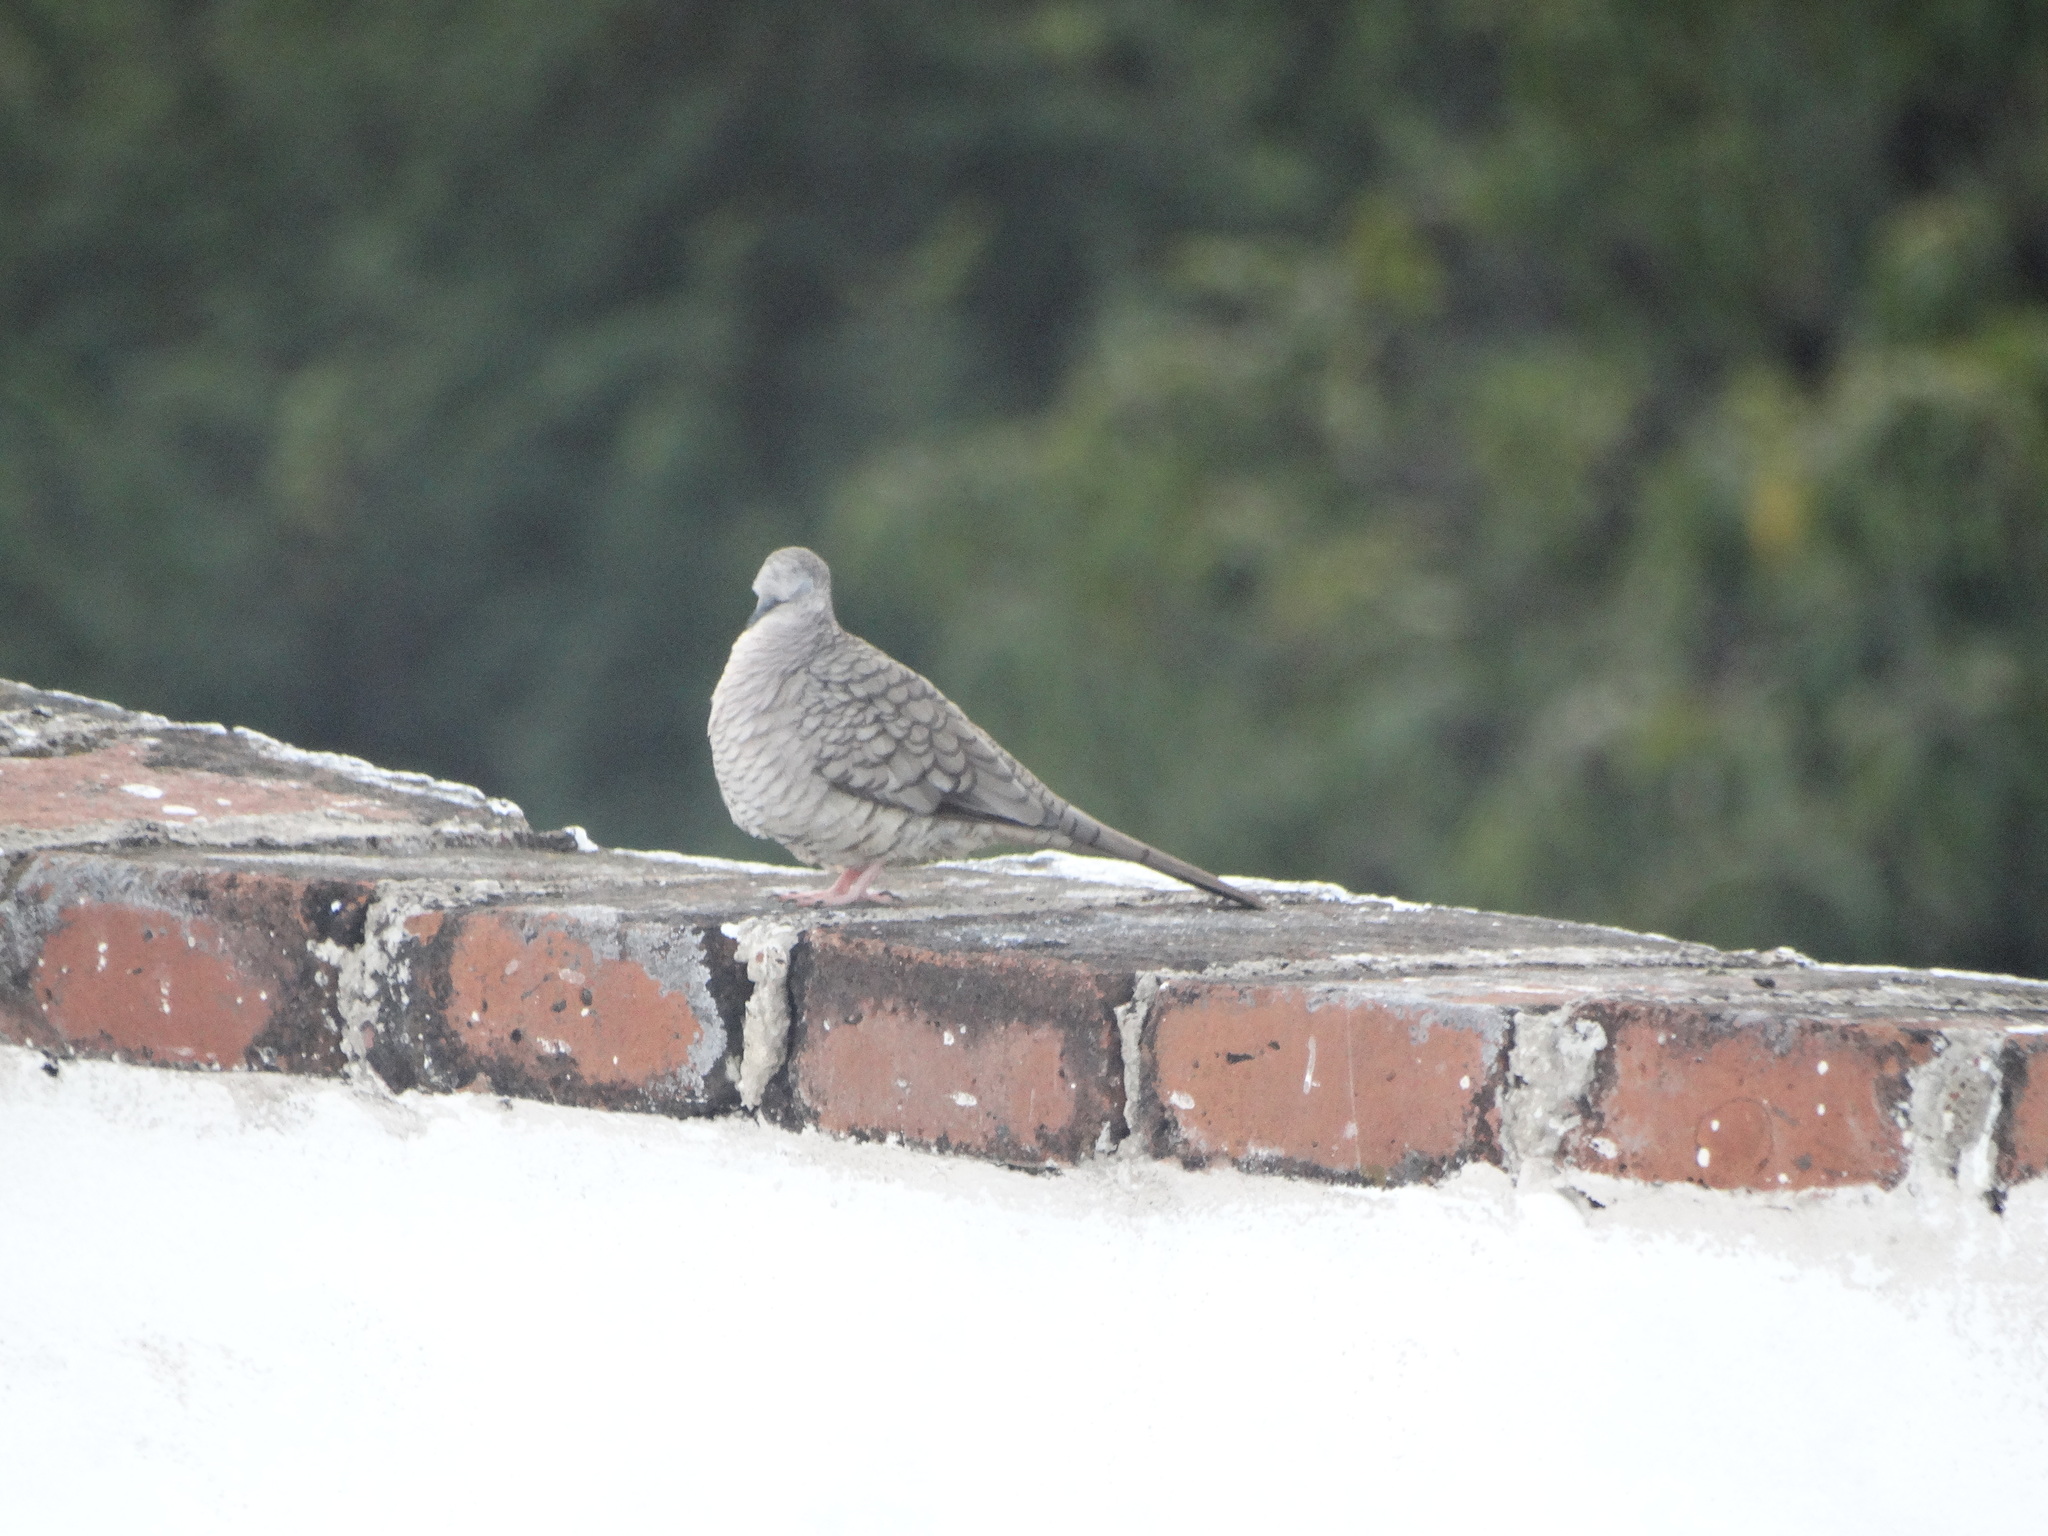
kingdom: Animalia
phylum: Chordata
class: Aves
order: Columbiformes
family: Columbidae
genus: Columbina
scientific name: Columbina inca
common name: Inca dove
